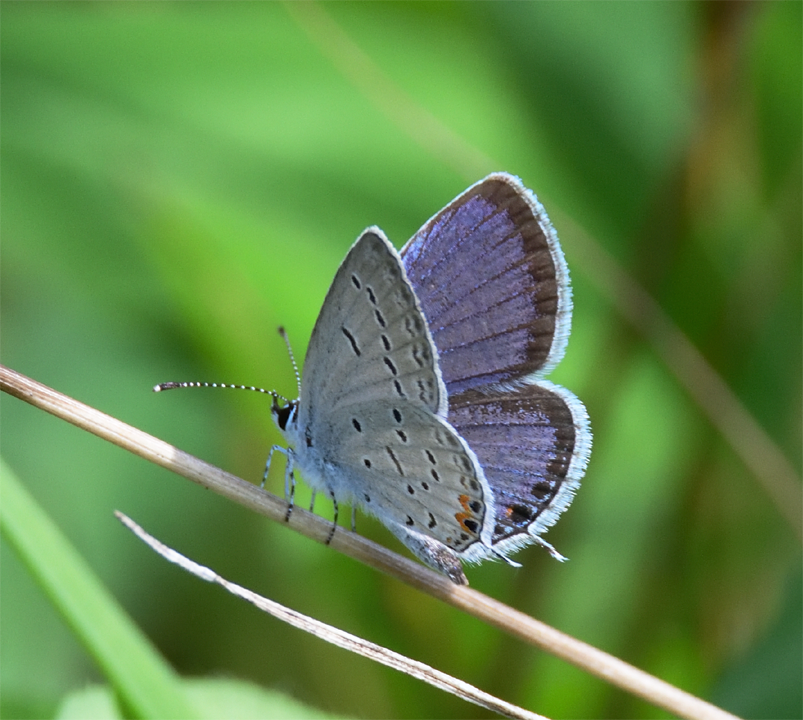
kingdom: Animalia
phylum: Arthropoda
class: Insecta
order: Lepidoptera
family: Lycaenidae
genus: Elkalyce
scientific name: Elkalyce comyntas
